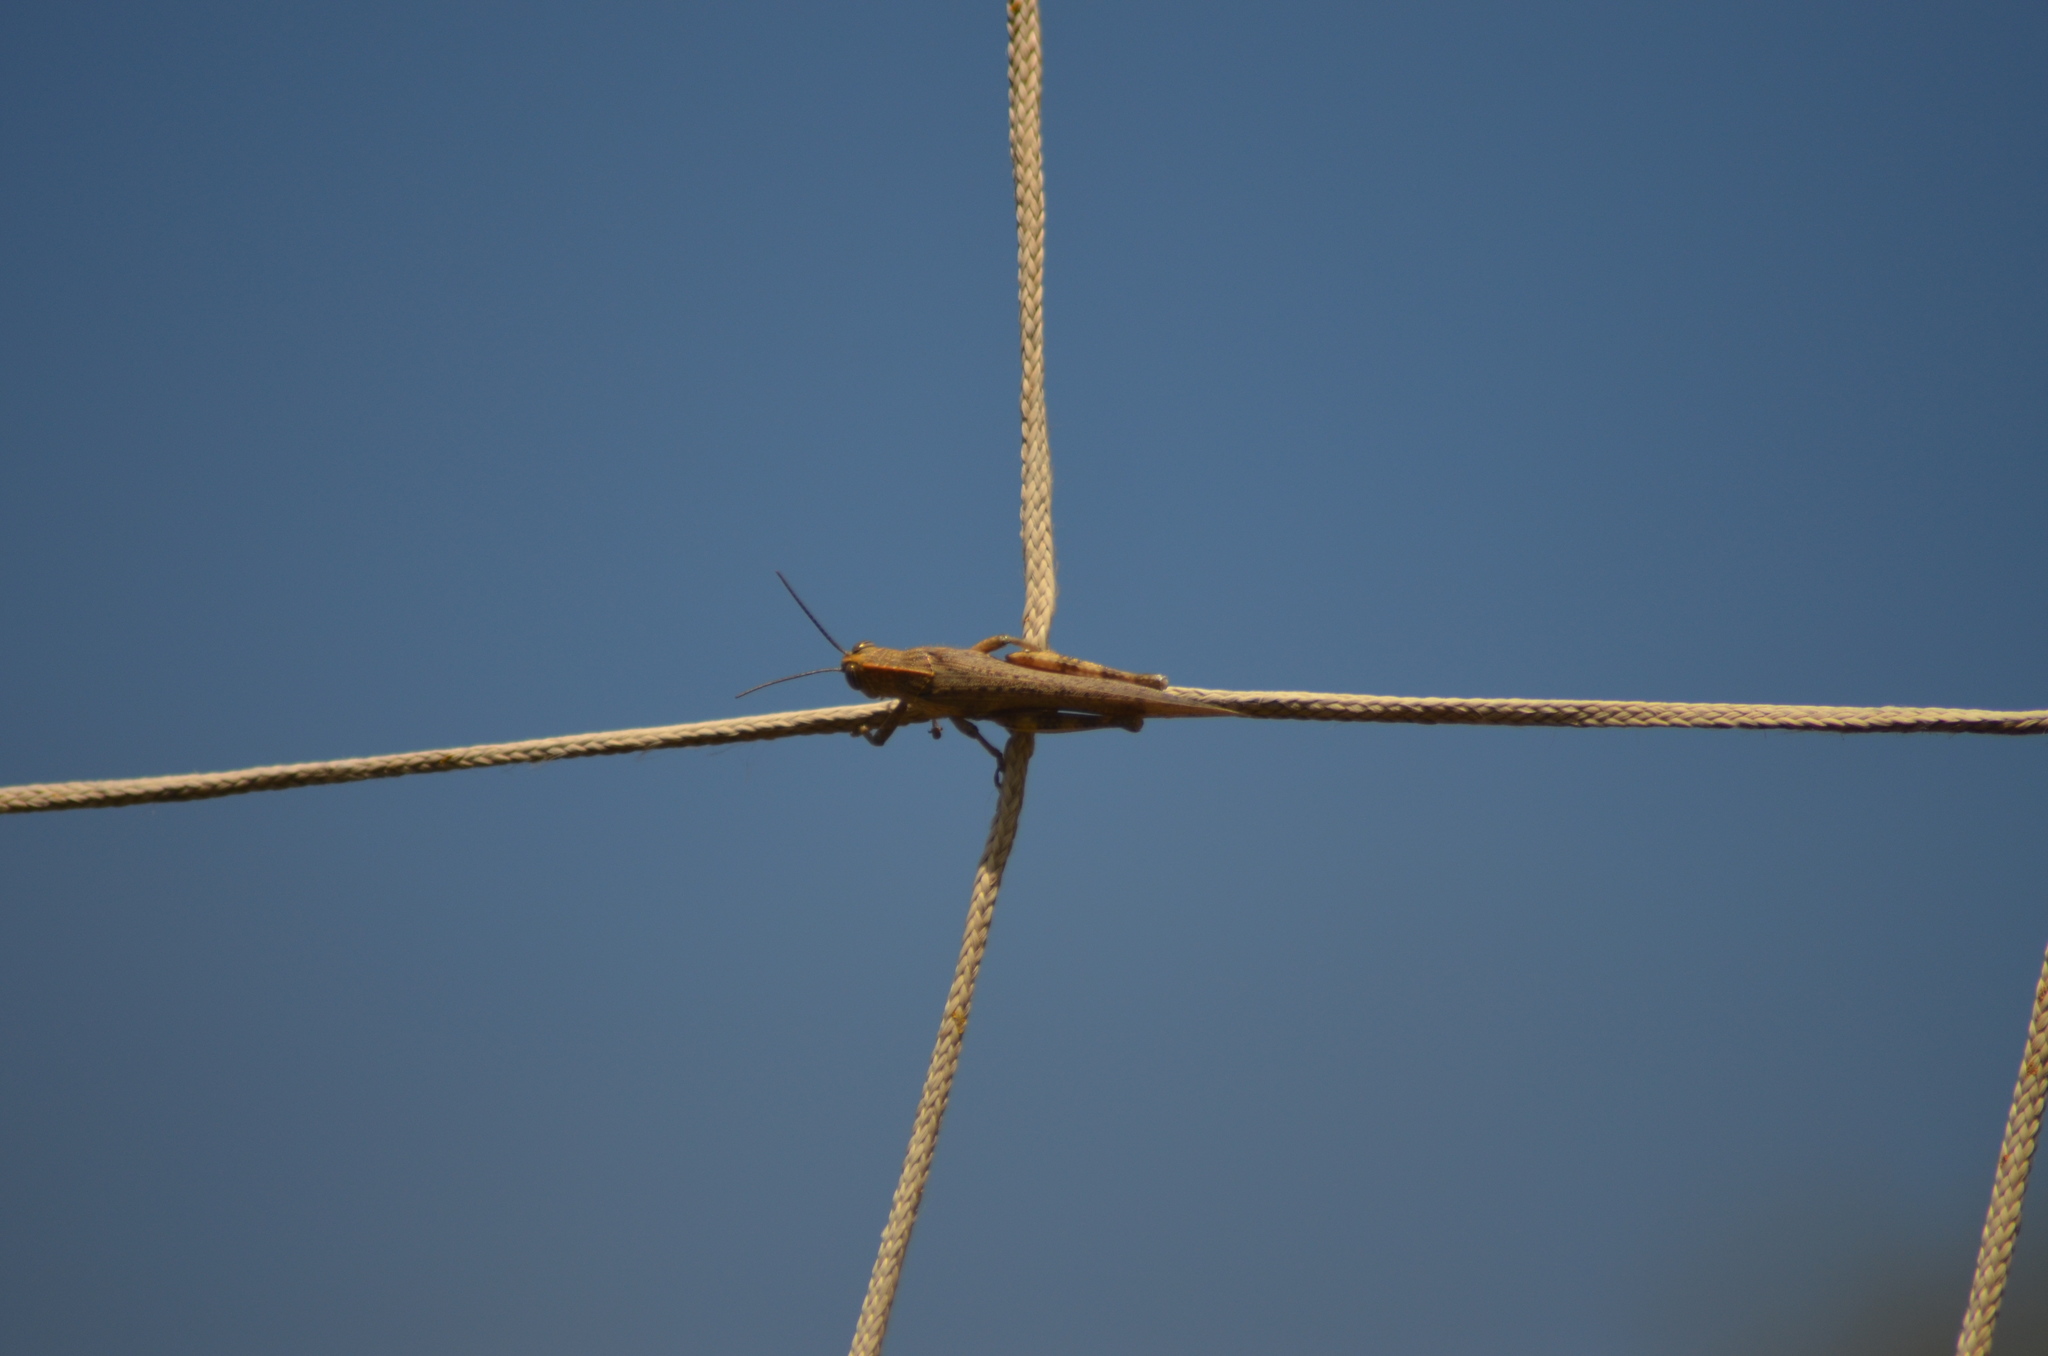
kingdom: Animalia
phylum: Arthropoda
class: Insecta
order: Orthoptera
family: Acrididae
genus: Anacridium
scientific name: Anacridium aegyptium
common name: Egyptian grasshopper
